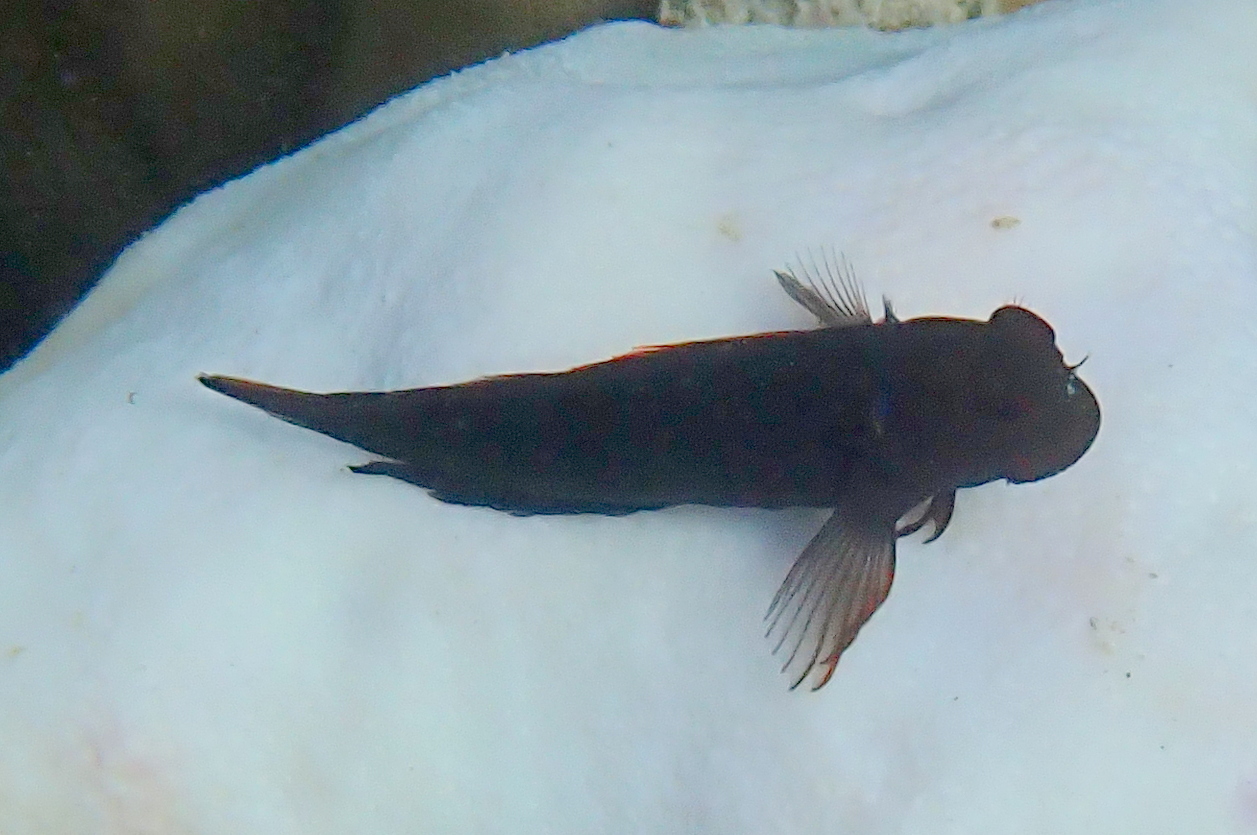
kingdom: Animalia
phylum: Chordata
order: Perciformes
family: Blenniidae
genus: Cirripectes
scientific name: Cirripectes castaneus
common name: Chestnut blenny
